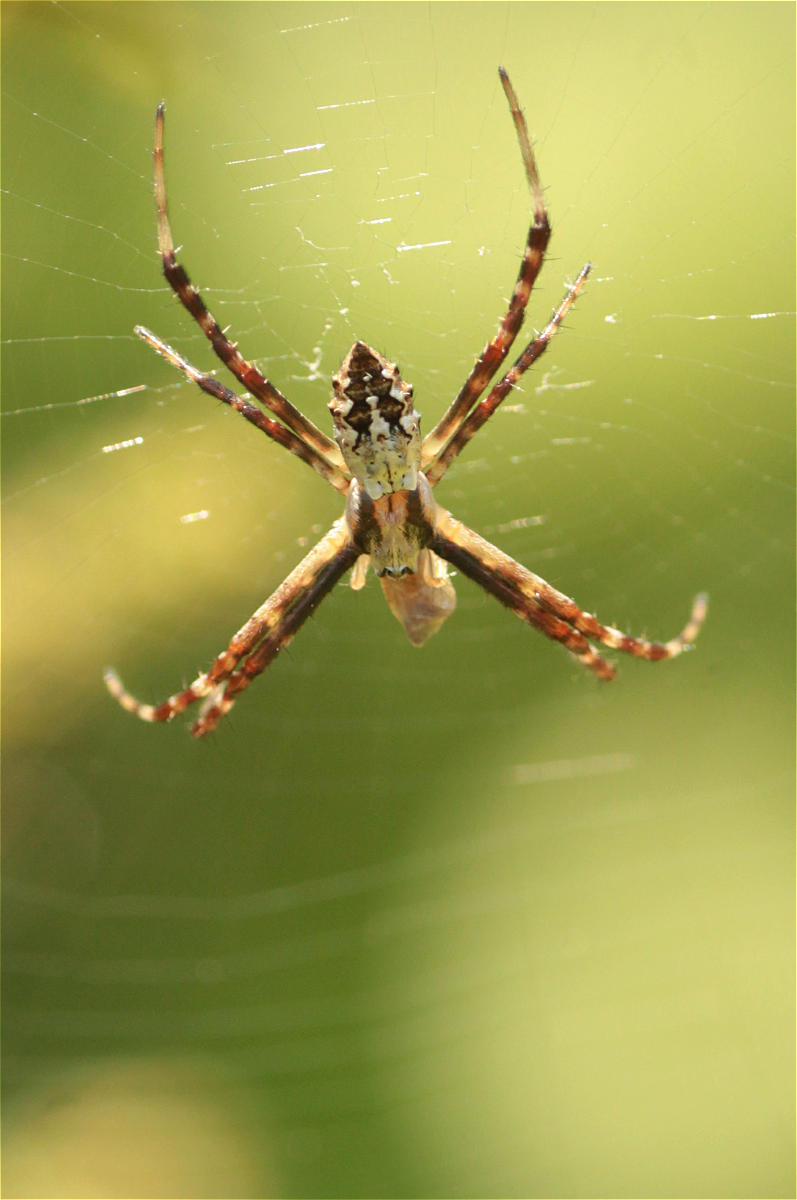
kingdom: Animalia
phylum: Arthropoda
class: Arachnida
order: Araneae
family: Araneidae
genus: Argiope
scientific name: Argiope argentata
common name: Orb weavers
